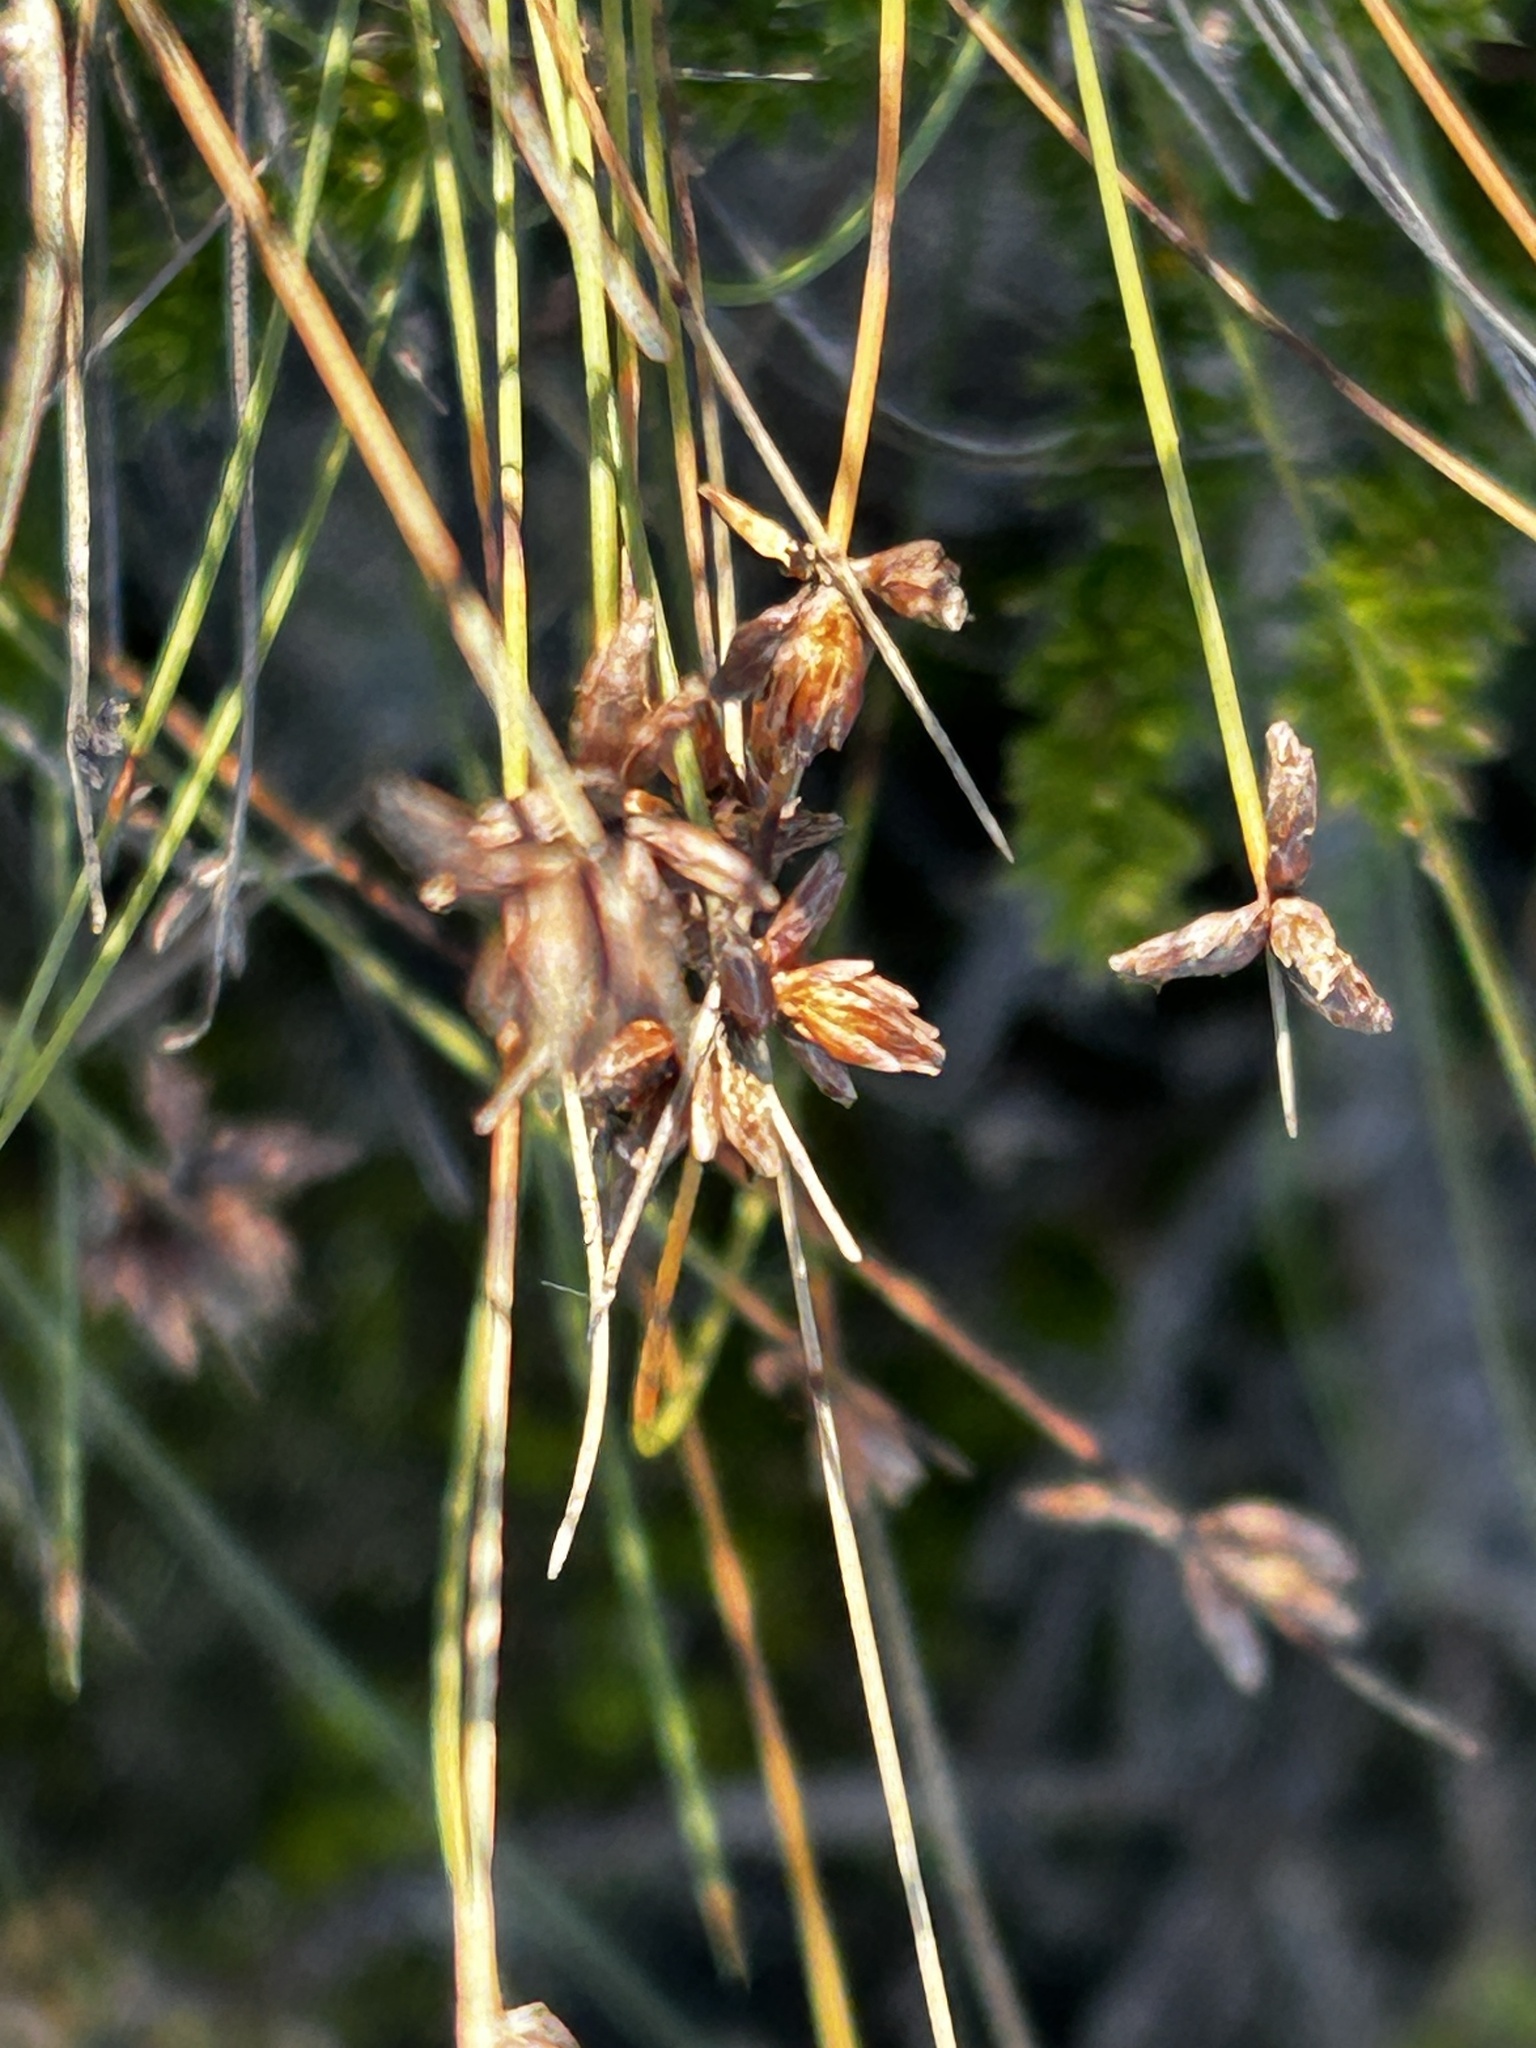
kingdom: Plantae
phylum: Tracheophyta
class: Liliopsida
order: Poales
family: Cyperaceae
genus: Ficinia
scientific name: Ficinia lateralis
